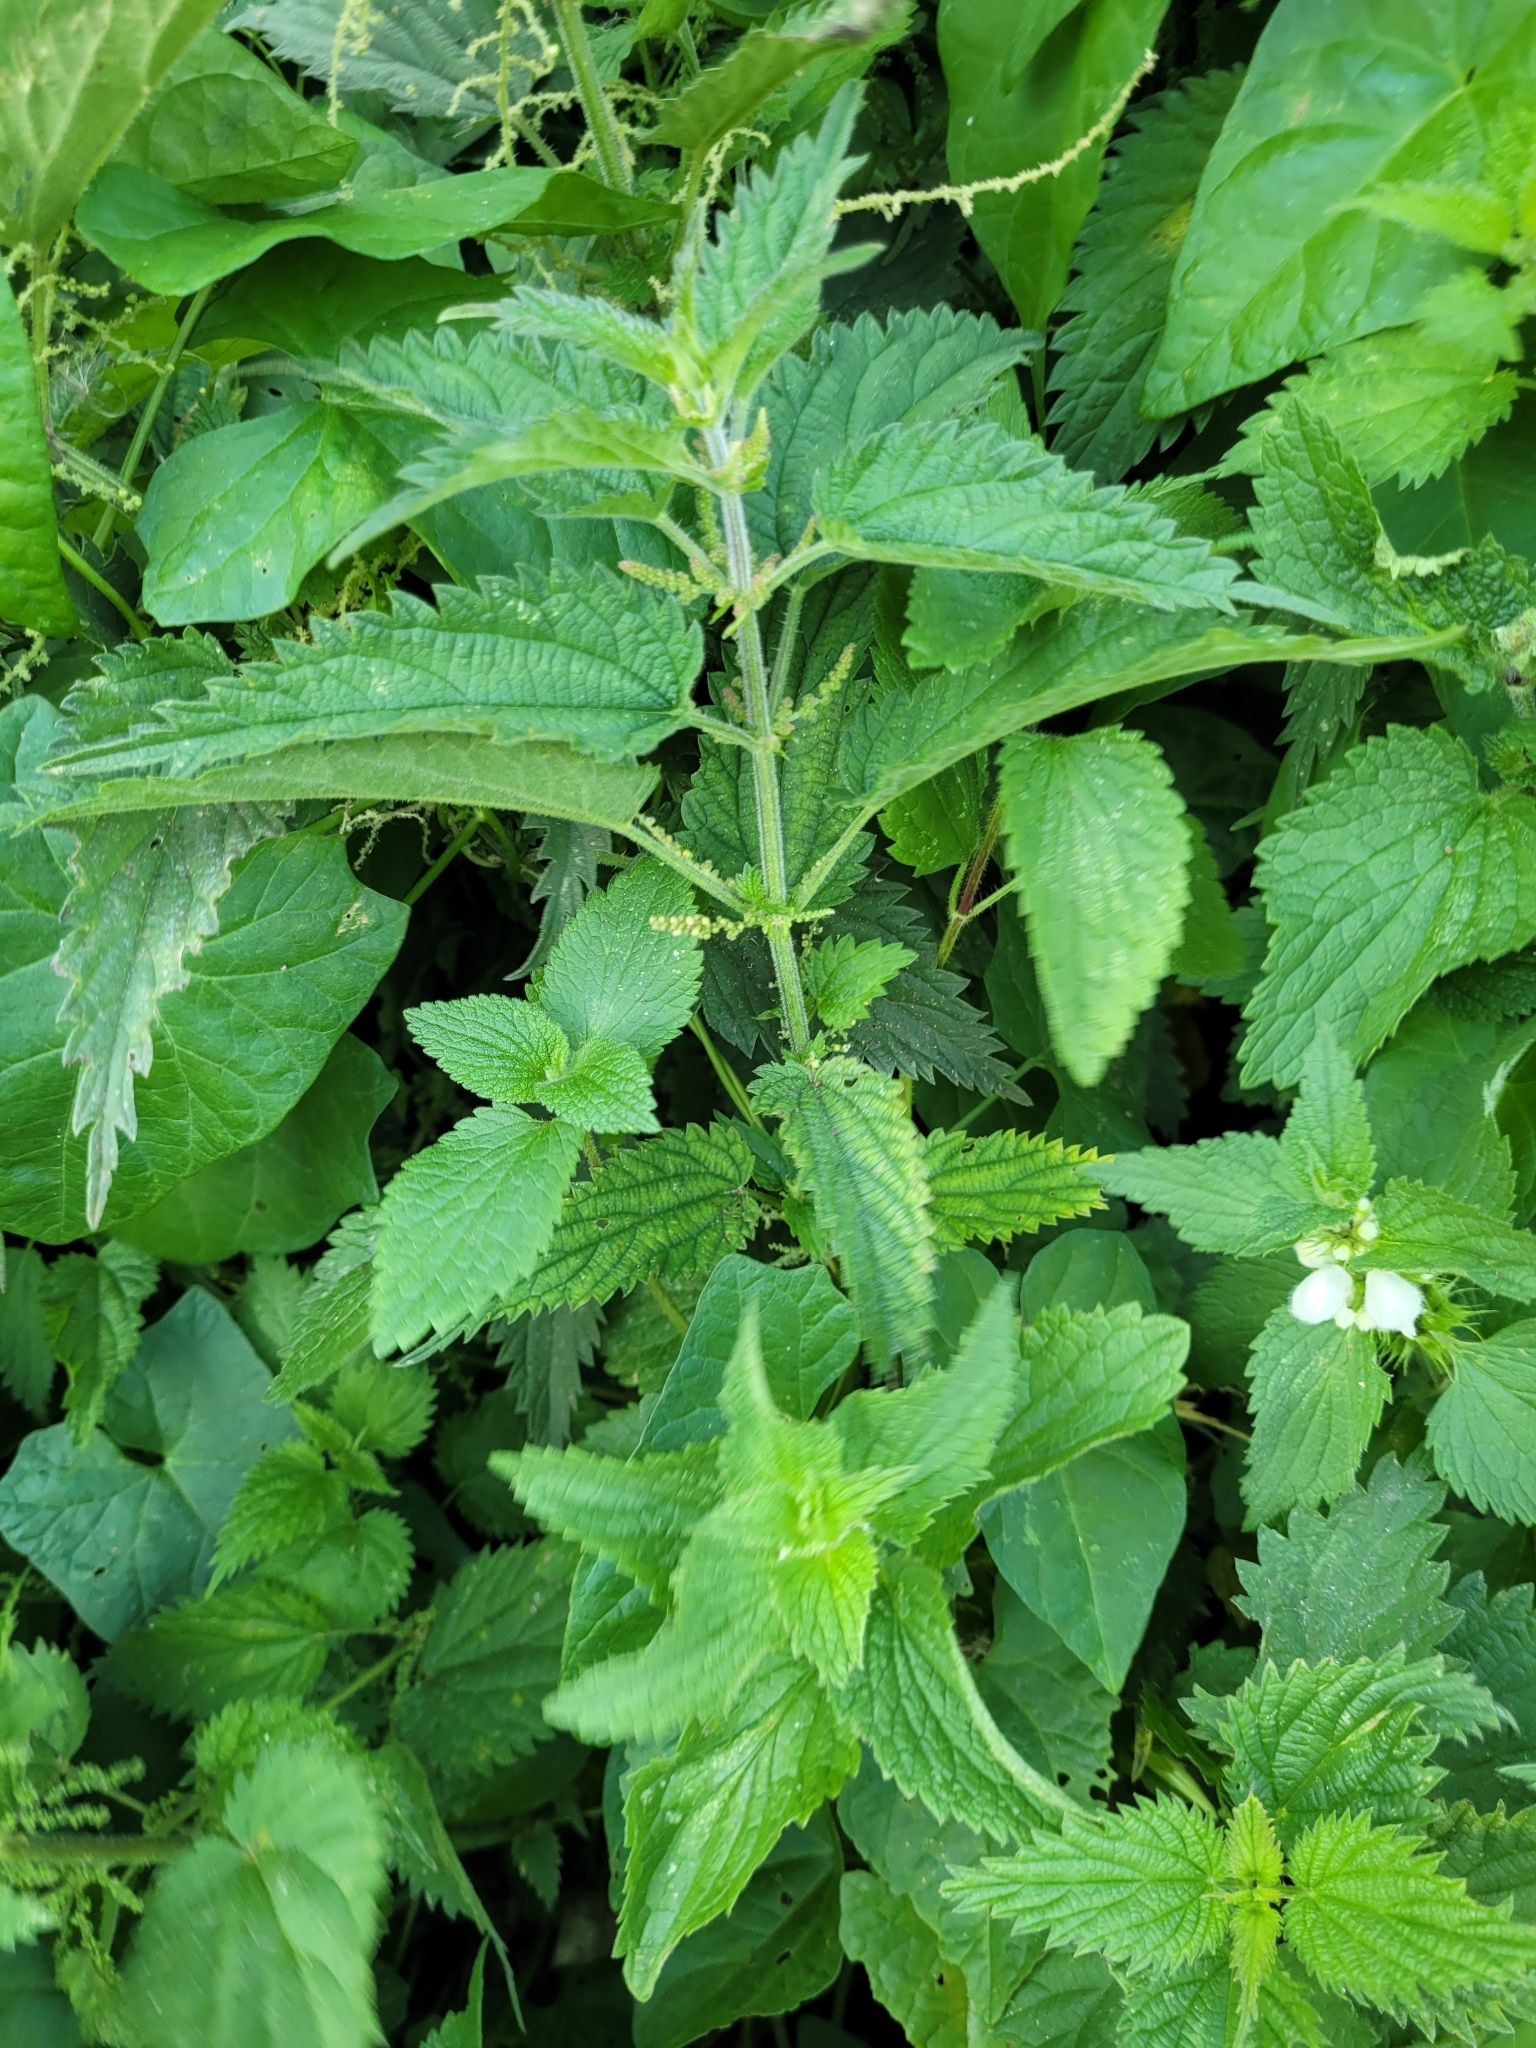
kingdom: Plantae
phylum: Tracheophyta
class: Magnoliopsida
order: Rosales
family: Urticaceae
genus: Urtica
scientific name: Urtica dioica
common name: Common nettle
